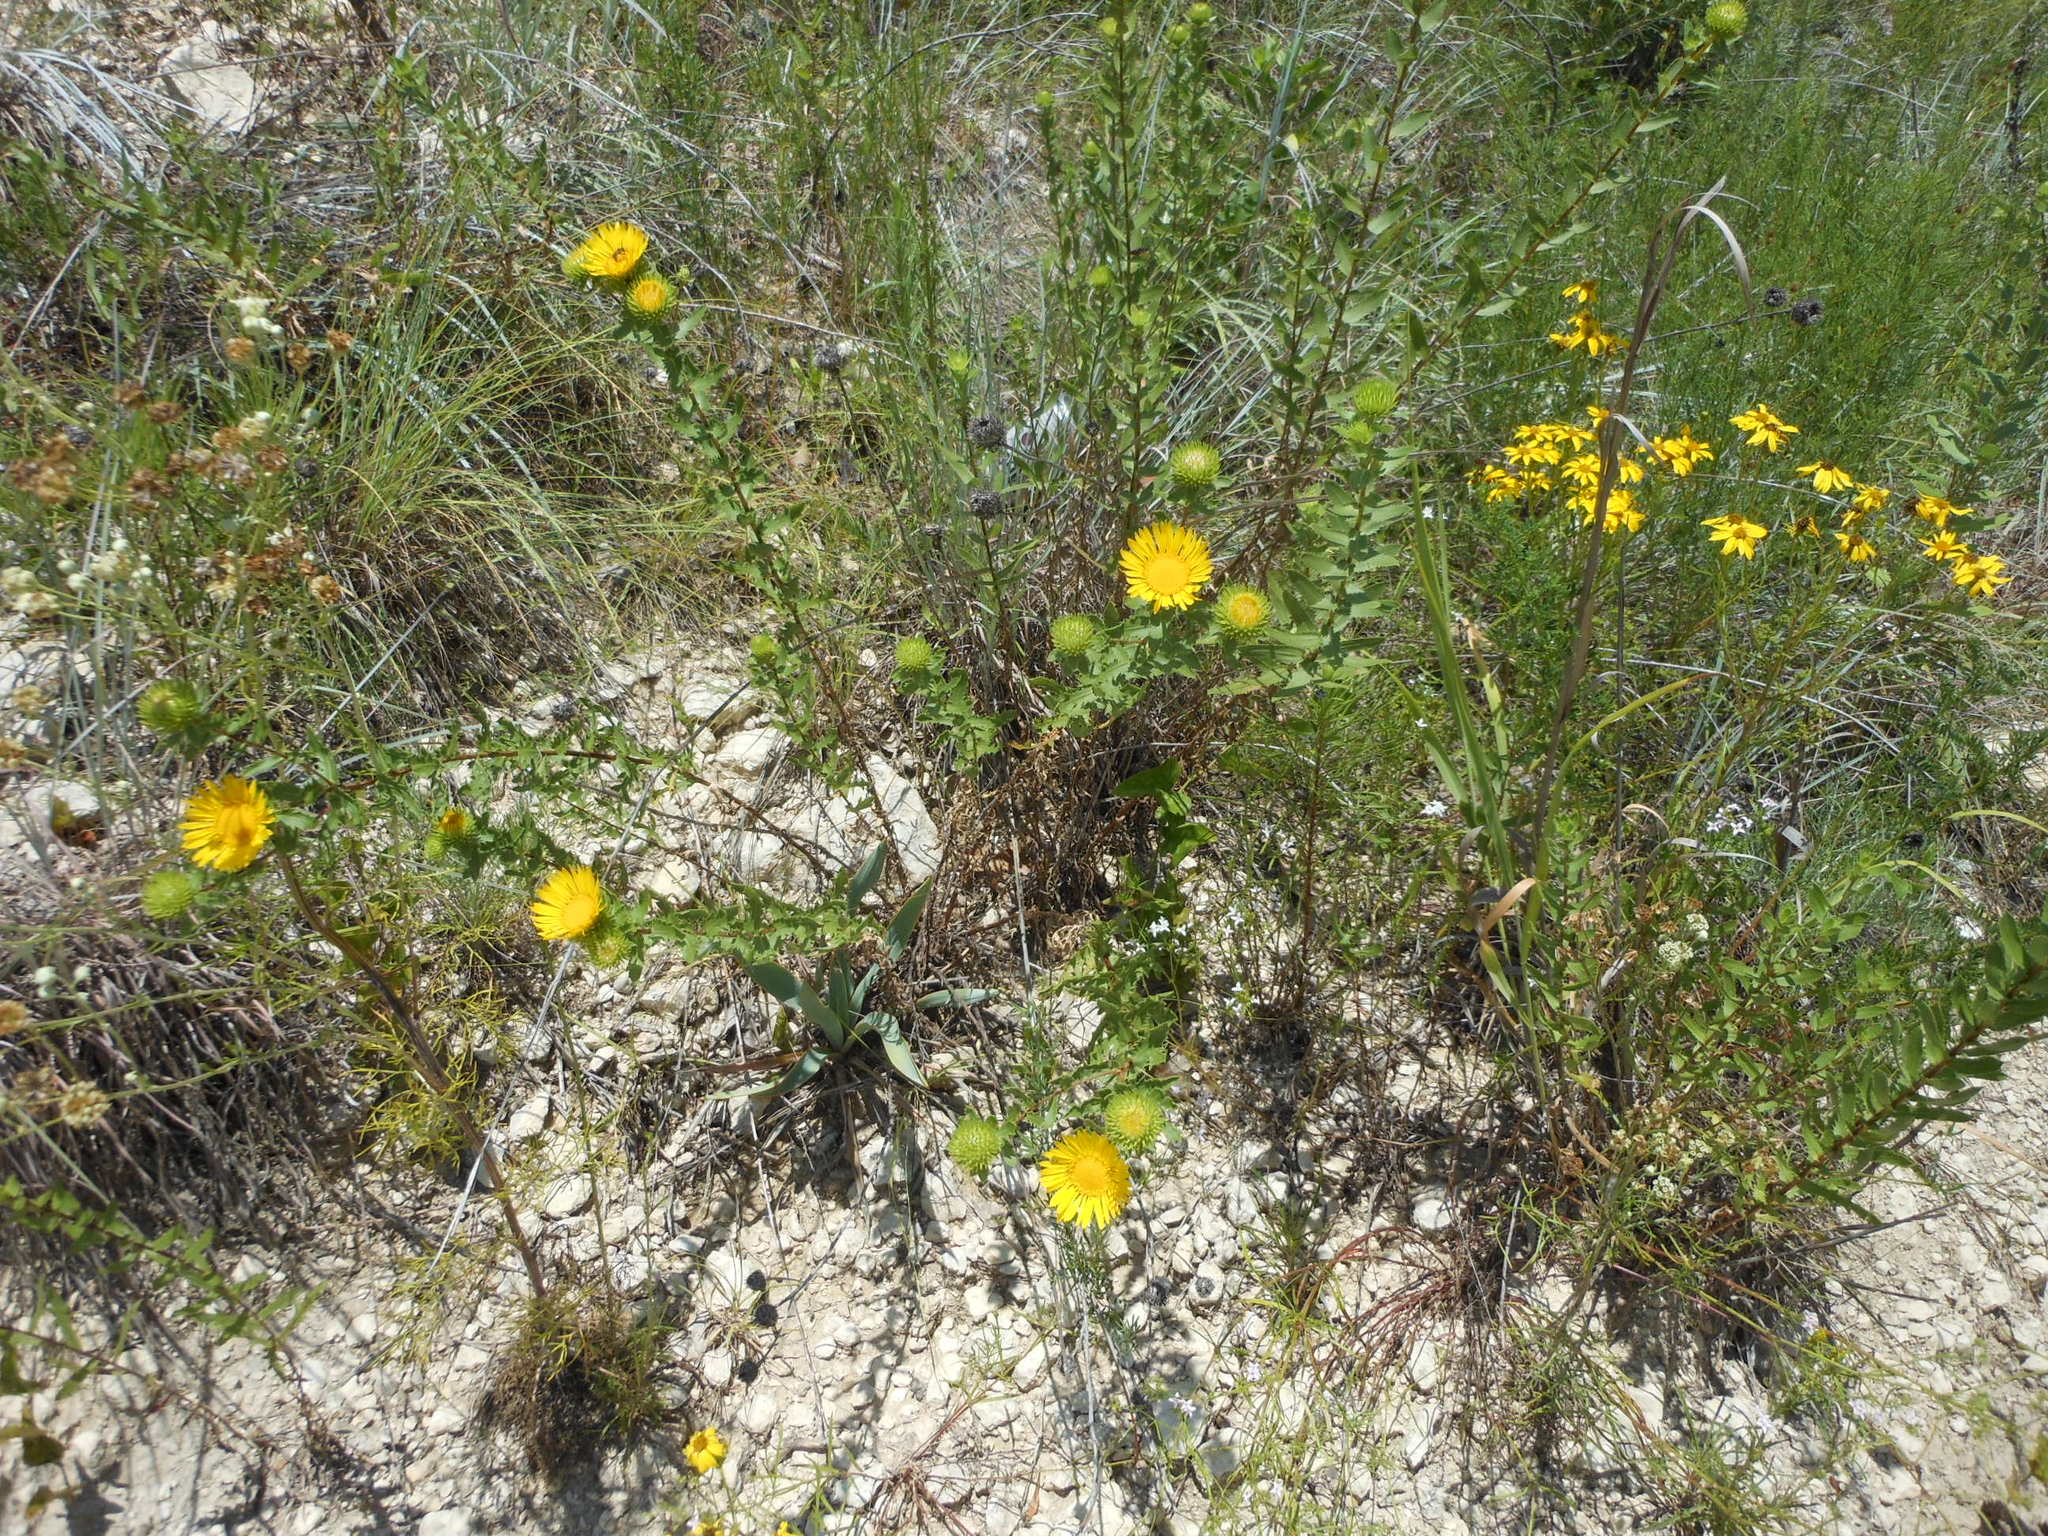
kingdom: Plantae
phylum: Tracheophyta
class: Magnoliopsida
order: Asterales
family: Asteraceae
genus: Grindelia
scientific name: Grindelia lanceolata
